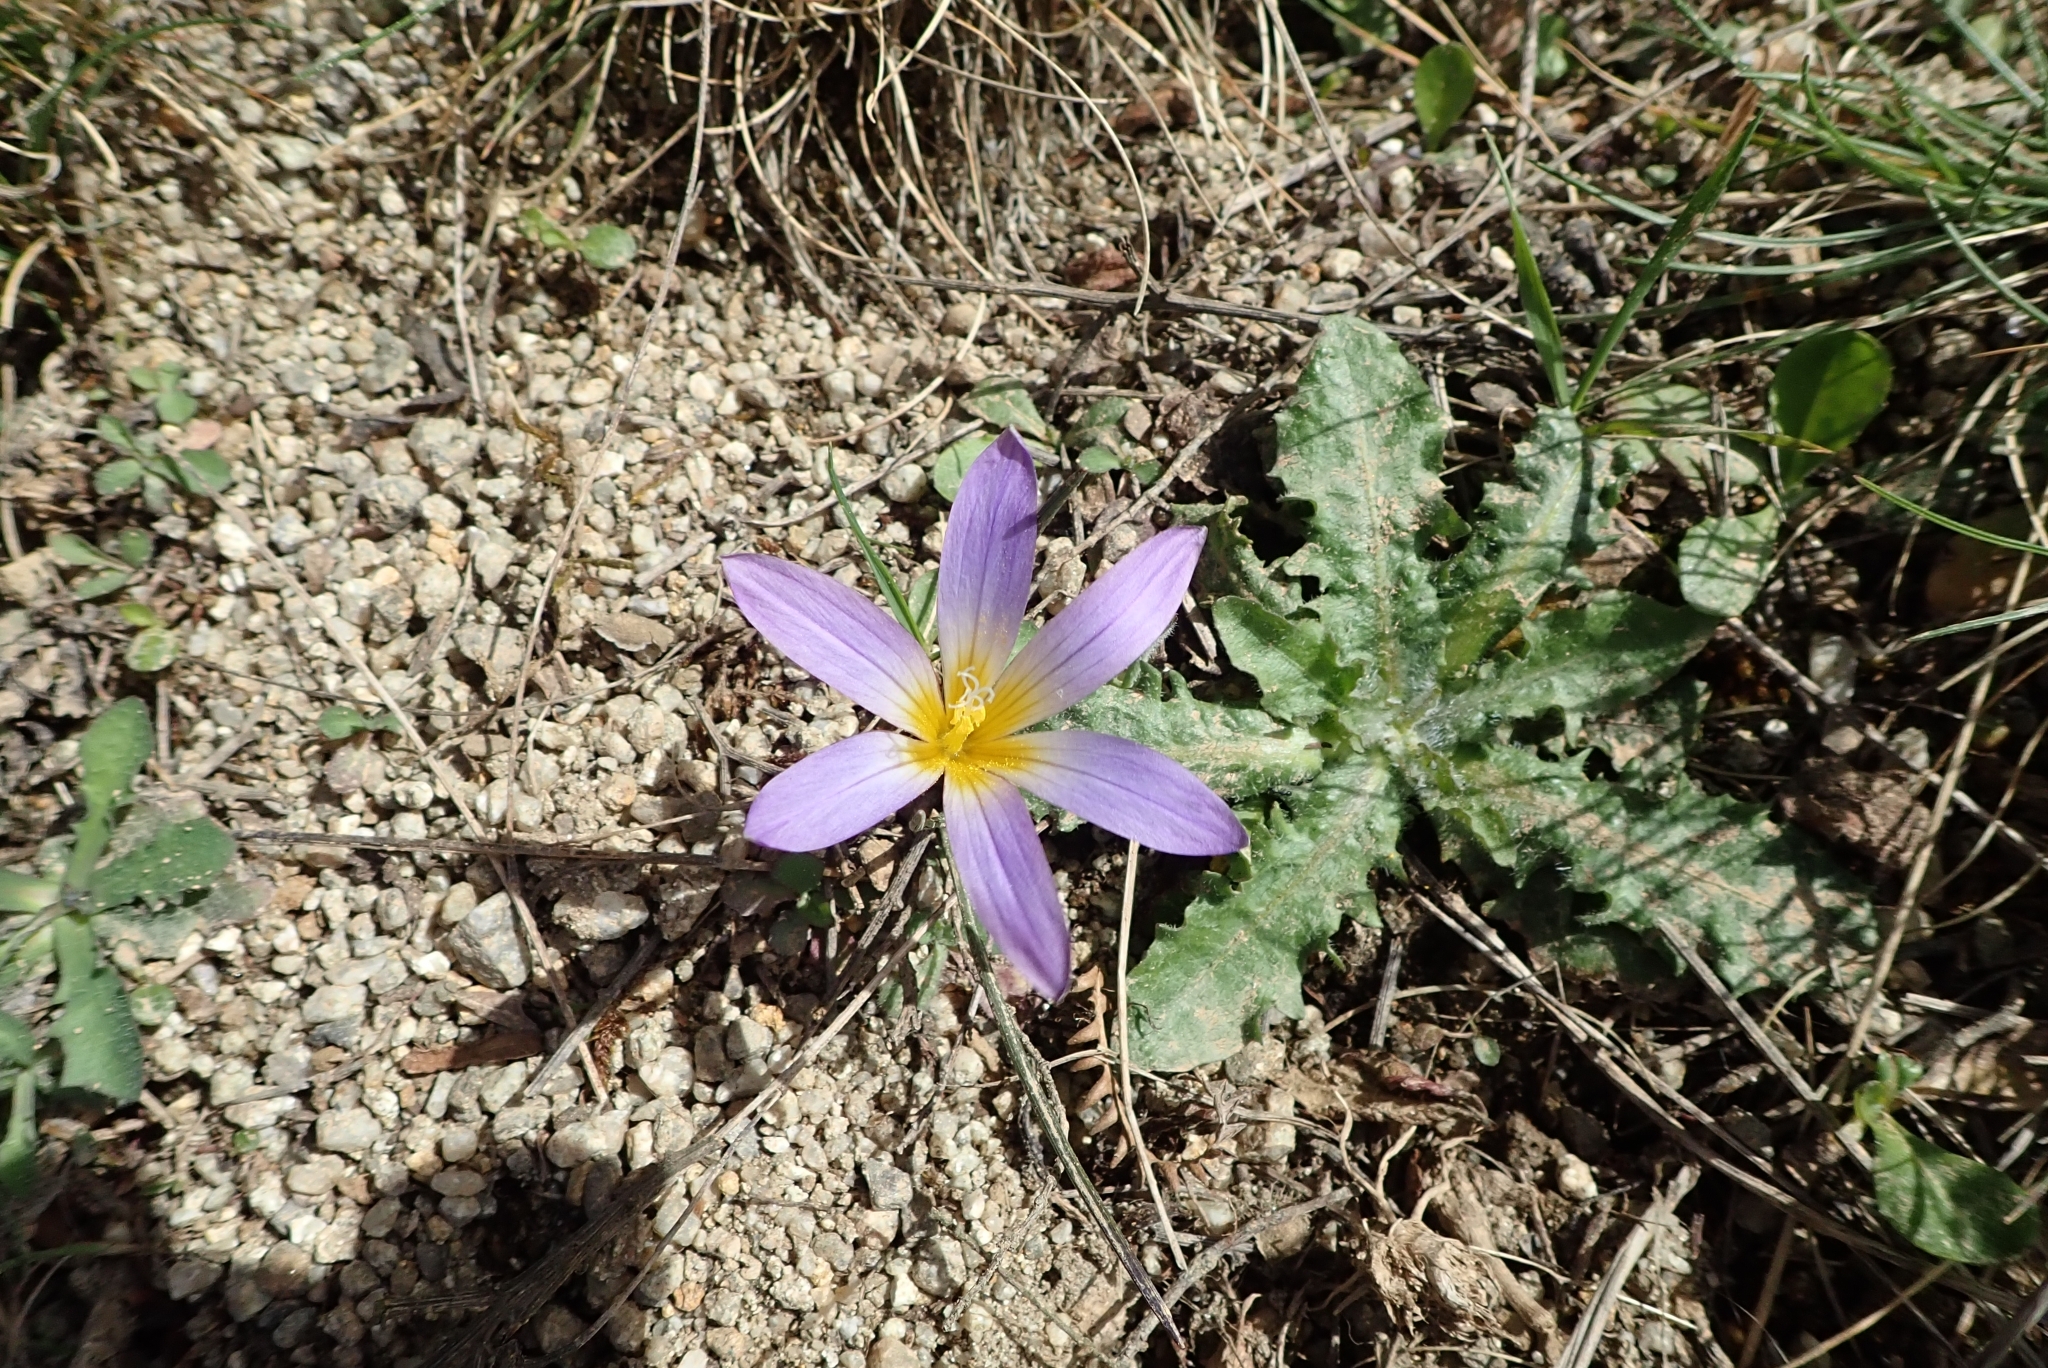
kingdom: Plantae
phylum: Tracheophyta
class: Liliopsida
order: Asparagales
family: Iridaceae
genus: Romulea
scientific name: Romulea bulbocodium
